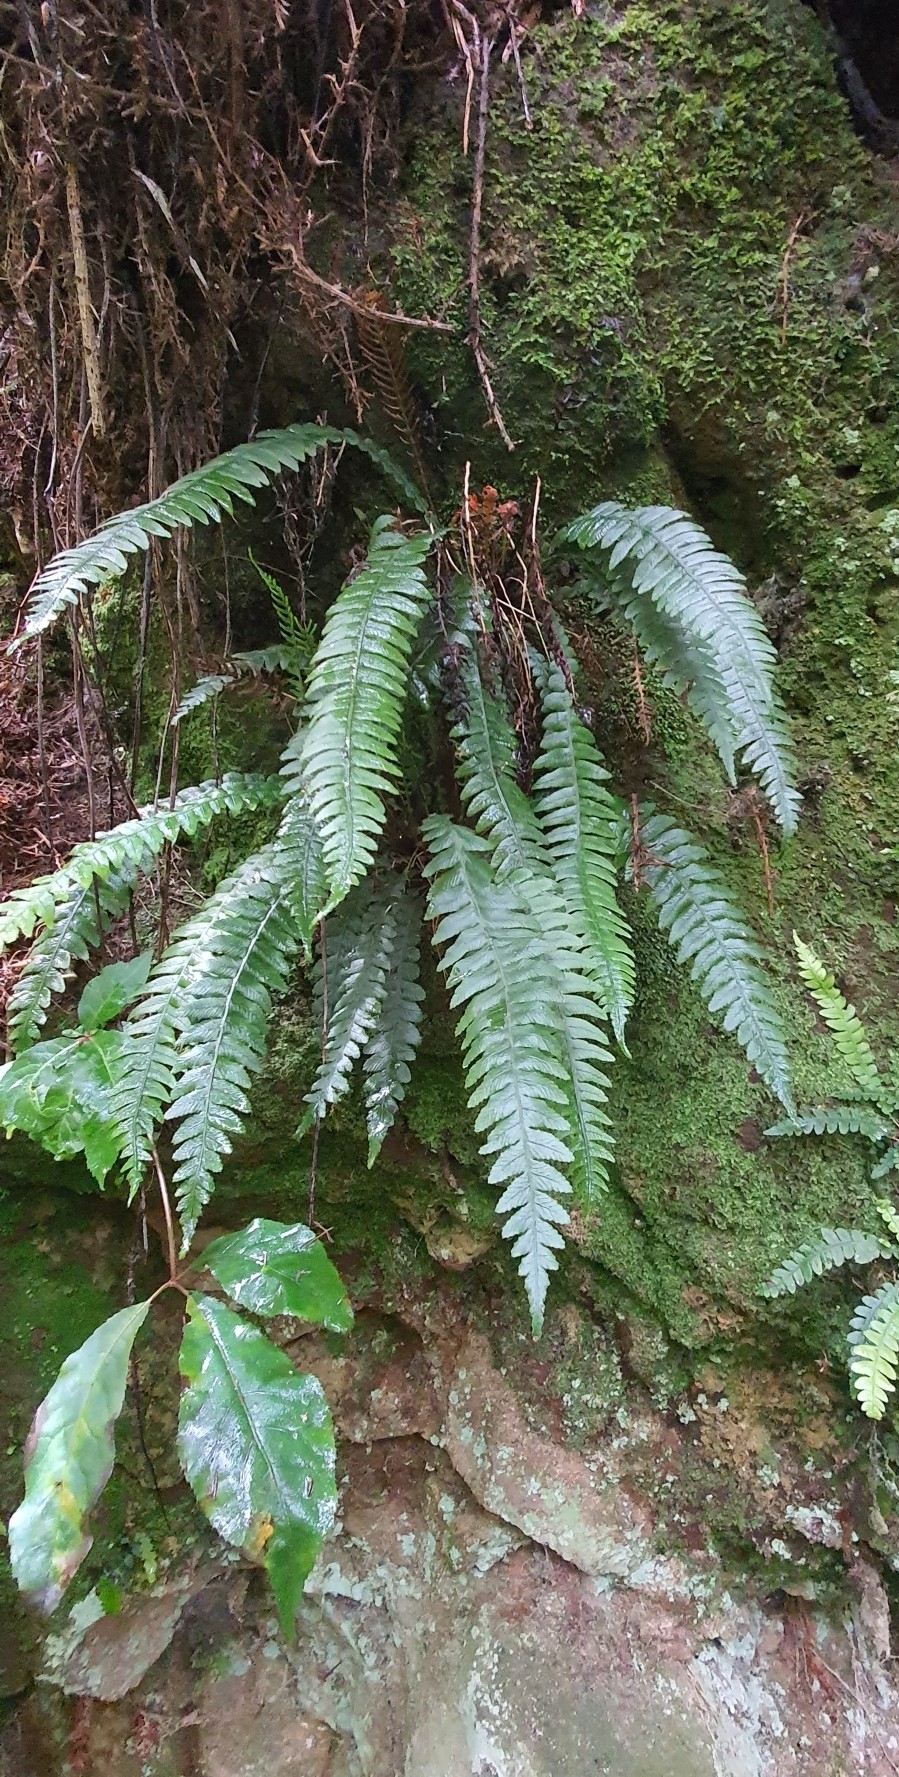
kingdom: Plantae
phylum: Tracheophyta
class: Polypodiopsida
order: Polypodiales
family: Blechnaceae
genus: Austroblechnum
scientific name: Austroblechnum lanceolatum
